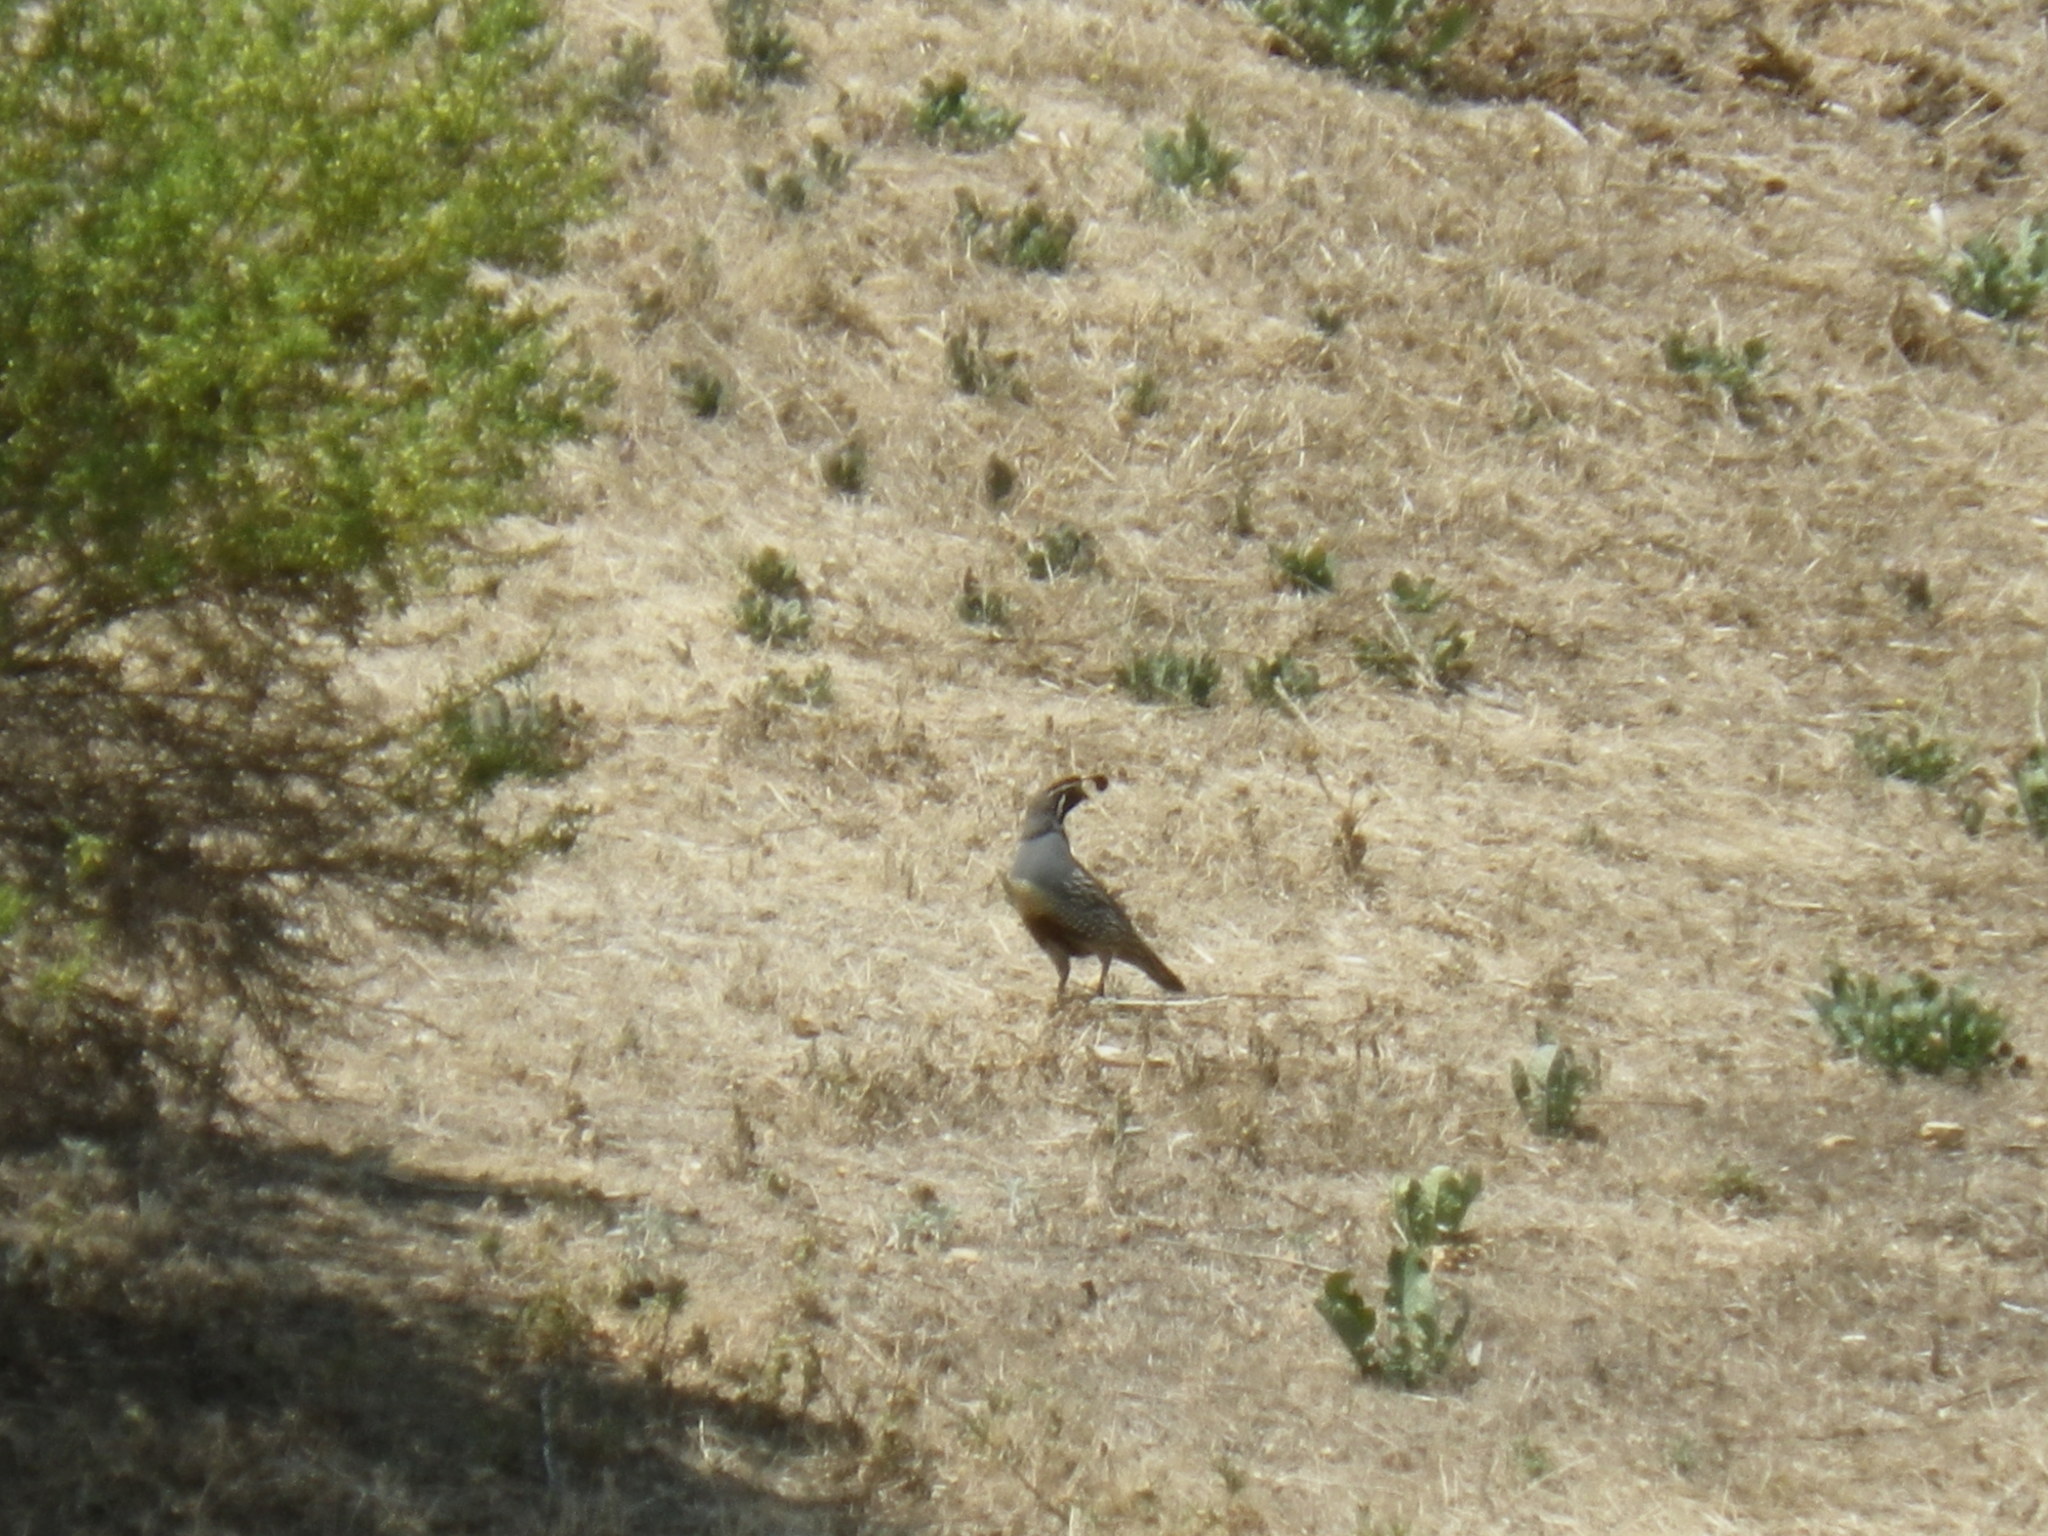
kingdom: Animalia
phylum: Chordata
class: Aves
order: Galliformes
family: Odontophoridae
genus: Callipepla
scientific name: Callipepla californica
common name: California quail
